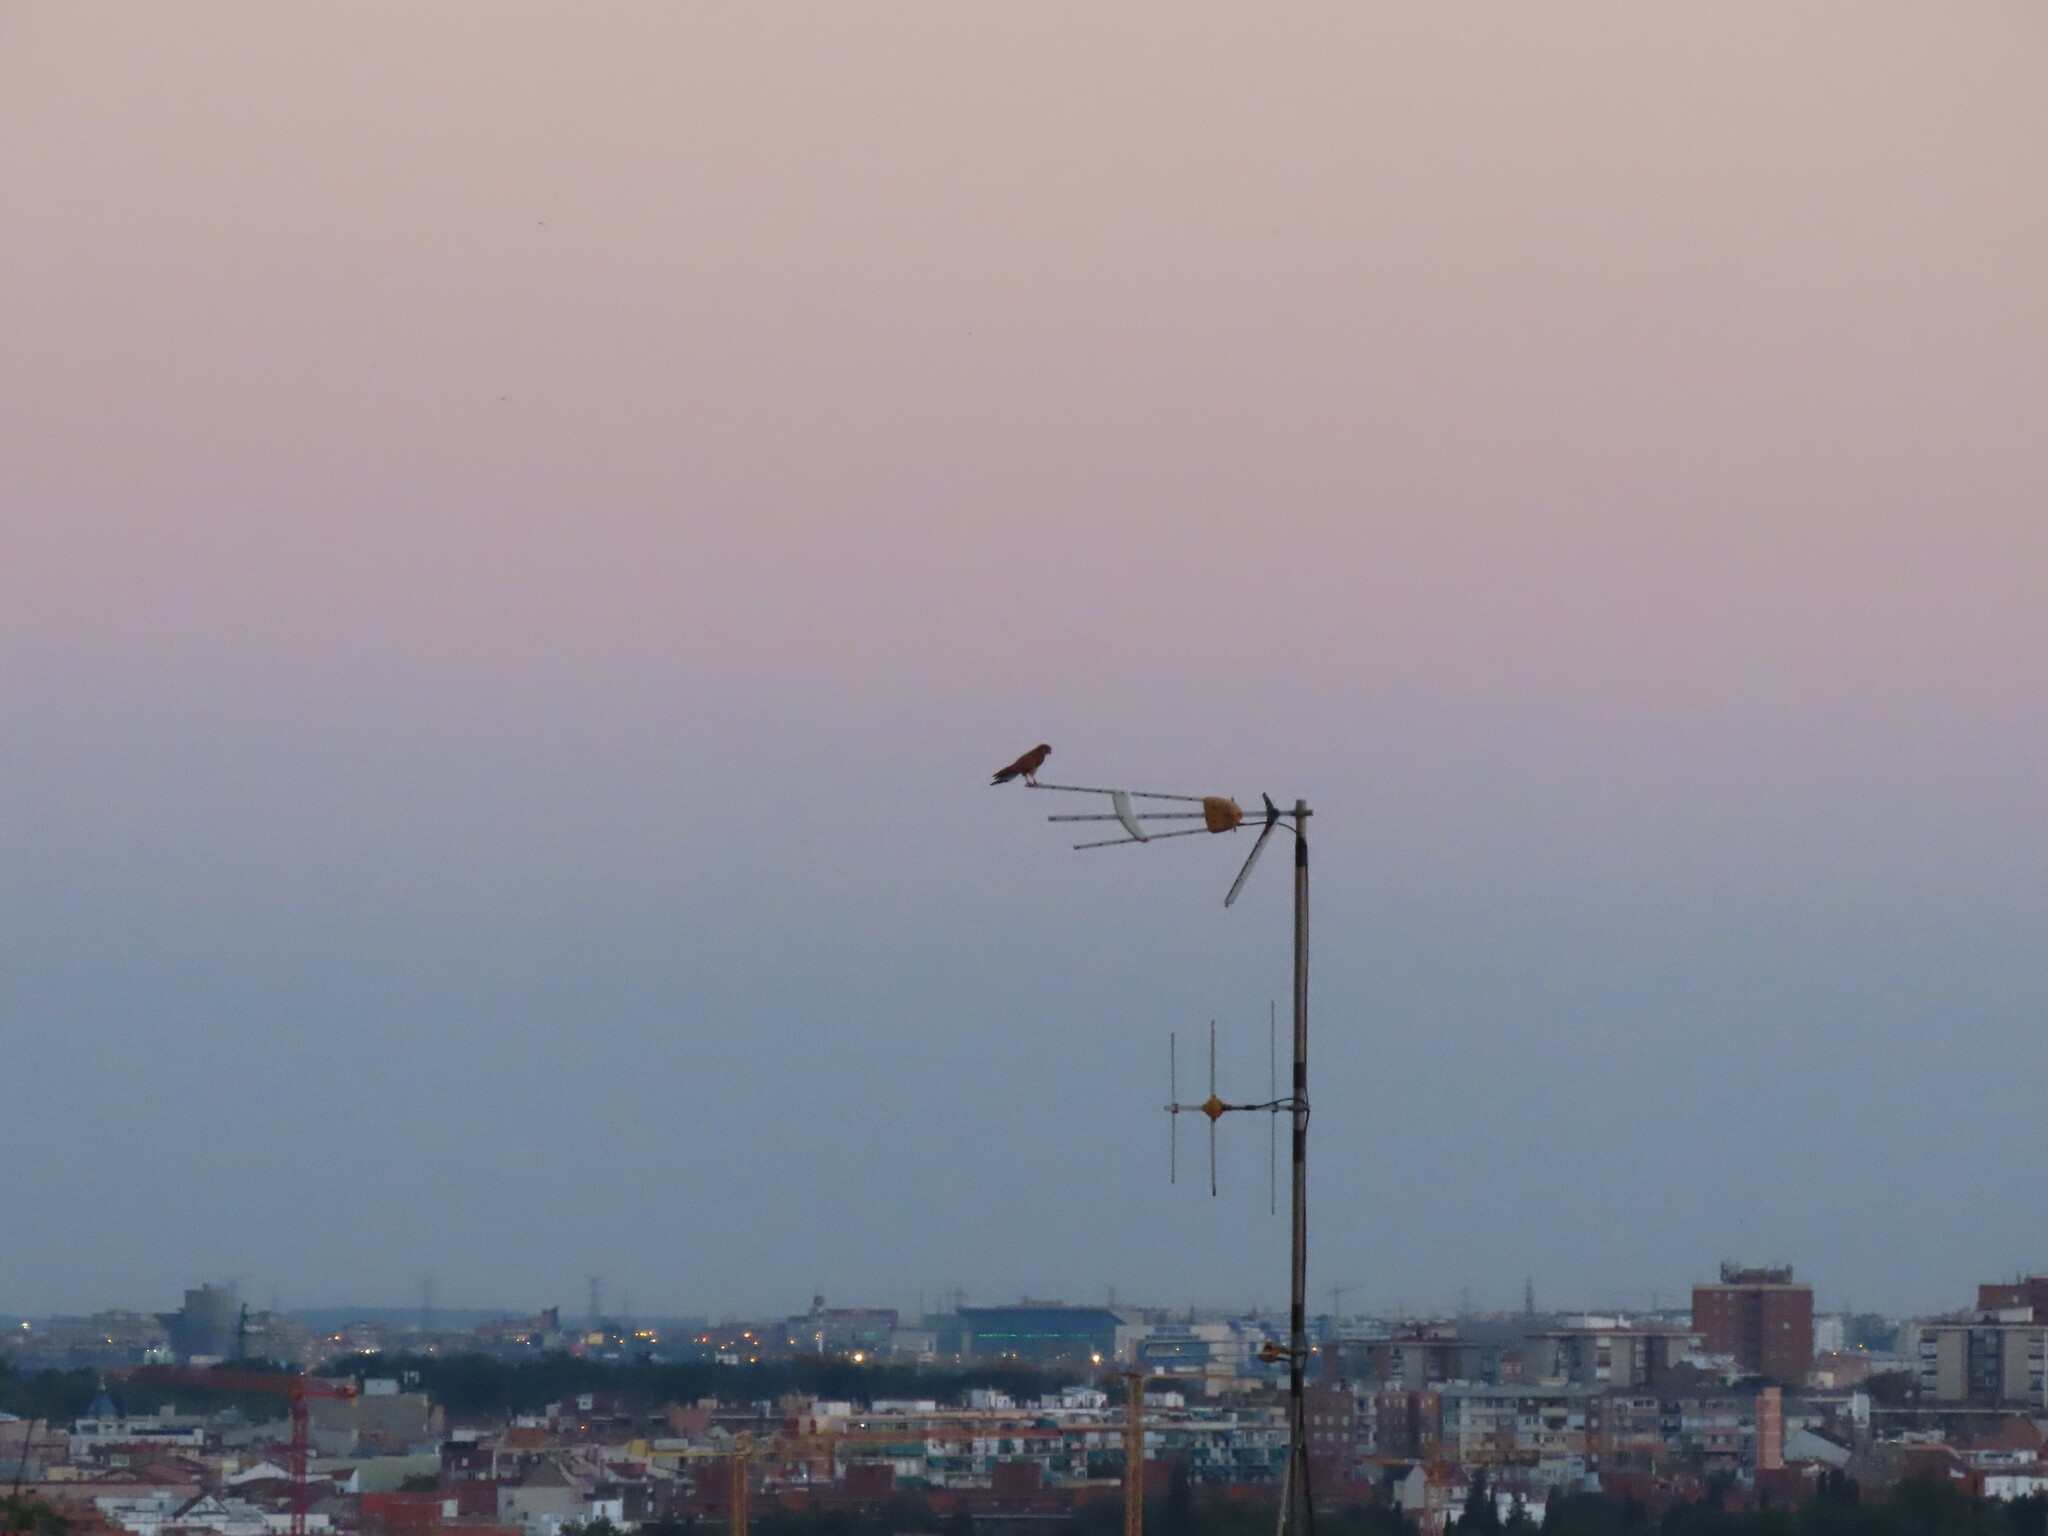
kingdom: Animalia
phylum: Chordata
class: Aves
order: Falconiformes
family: Falconidae
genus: Falco
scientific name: Falco tinnunculus
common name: Common kestrel
